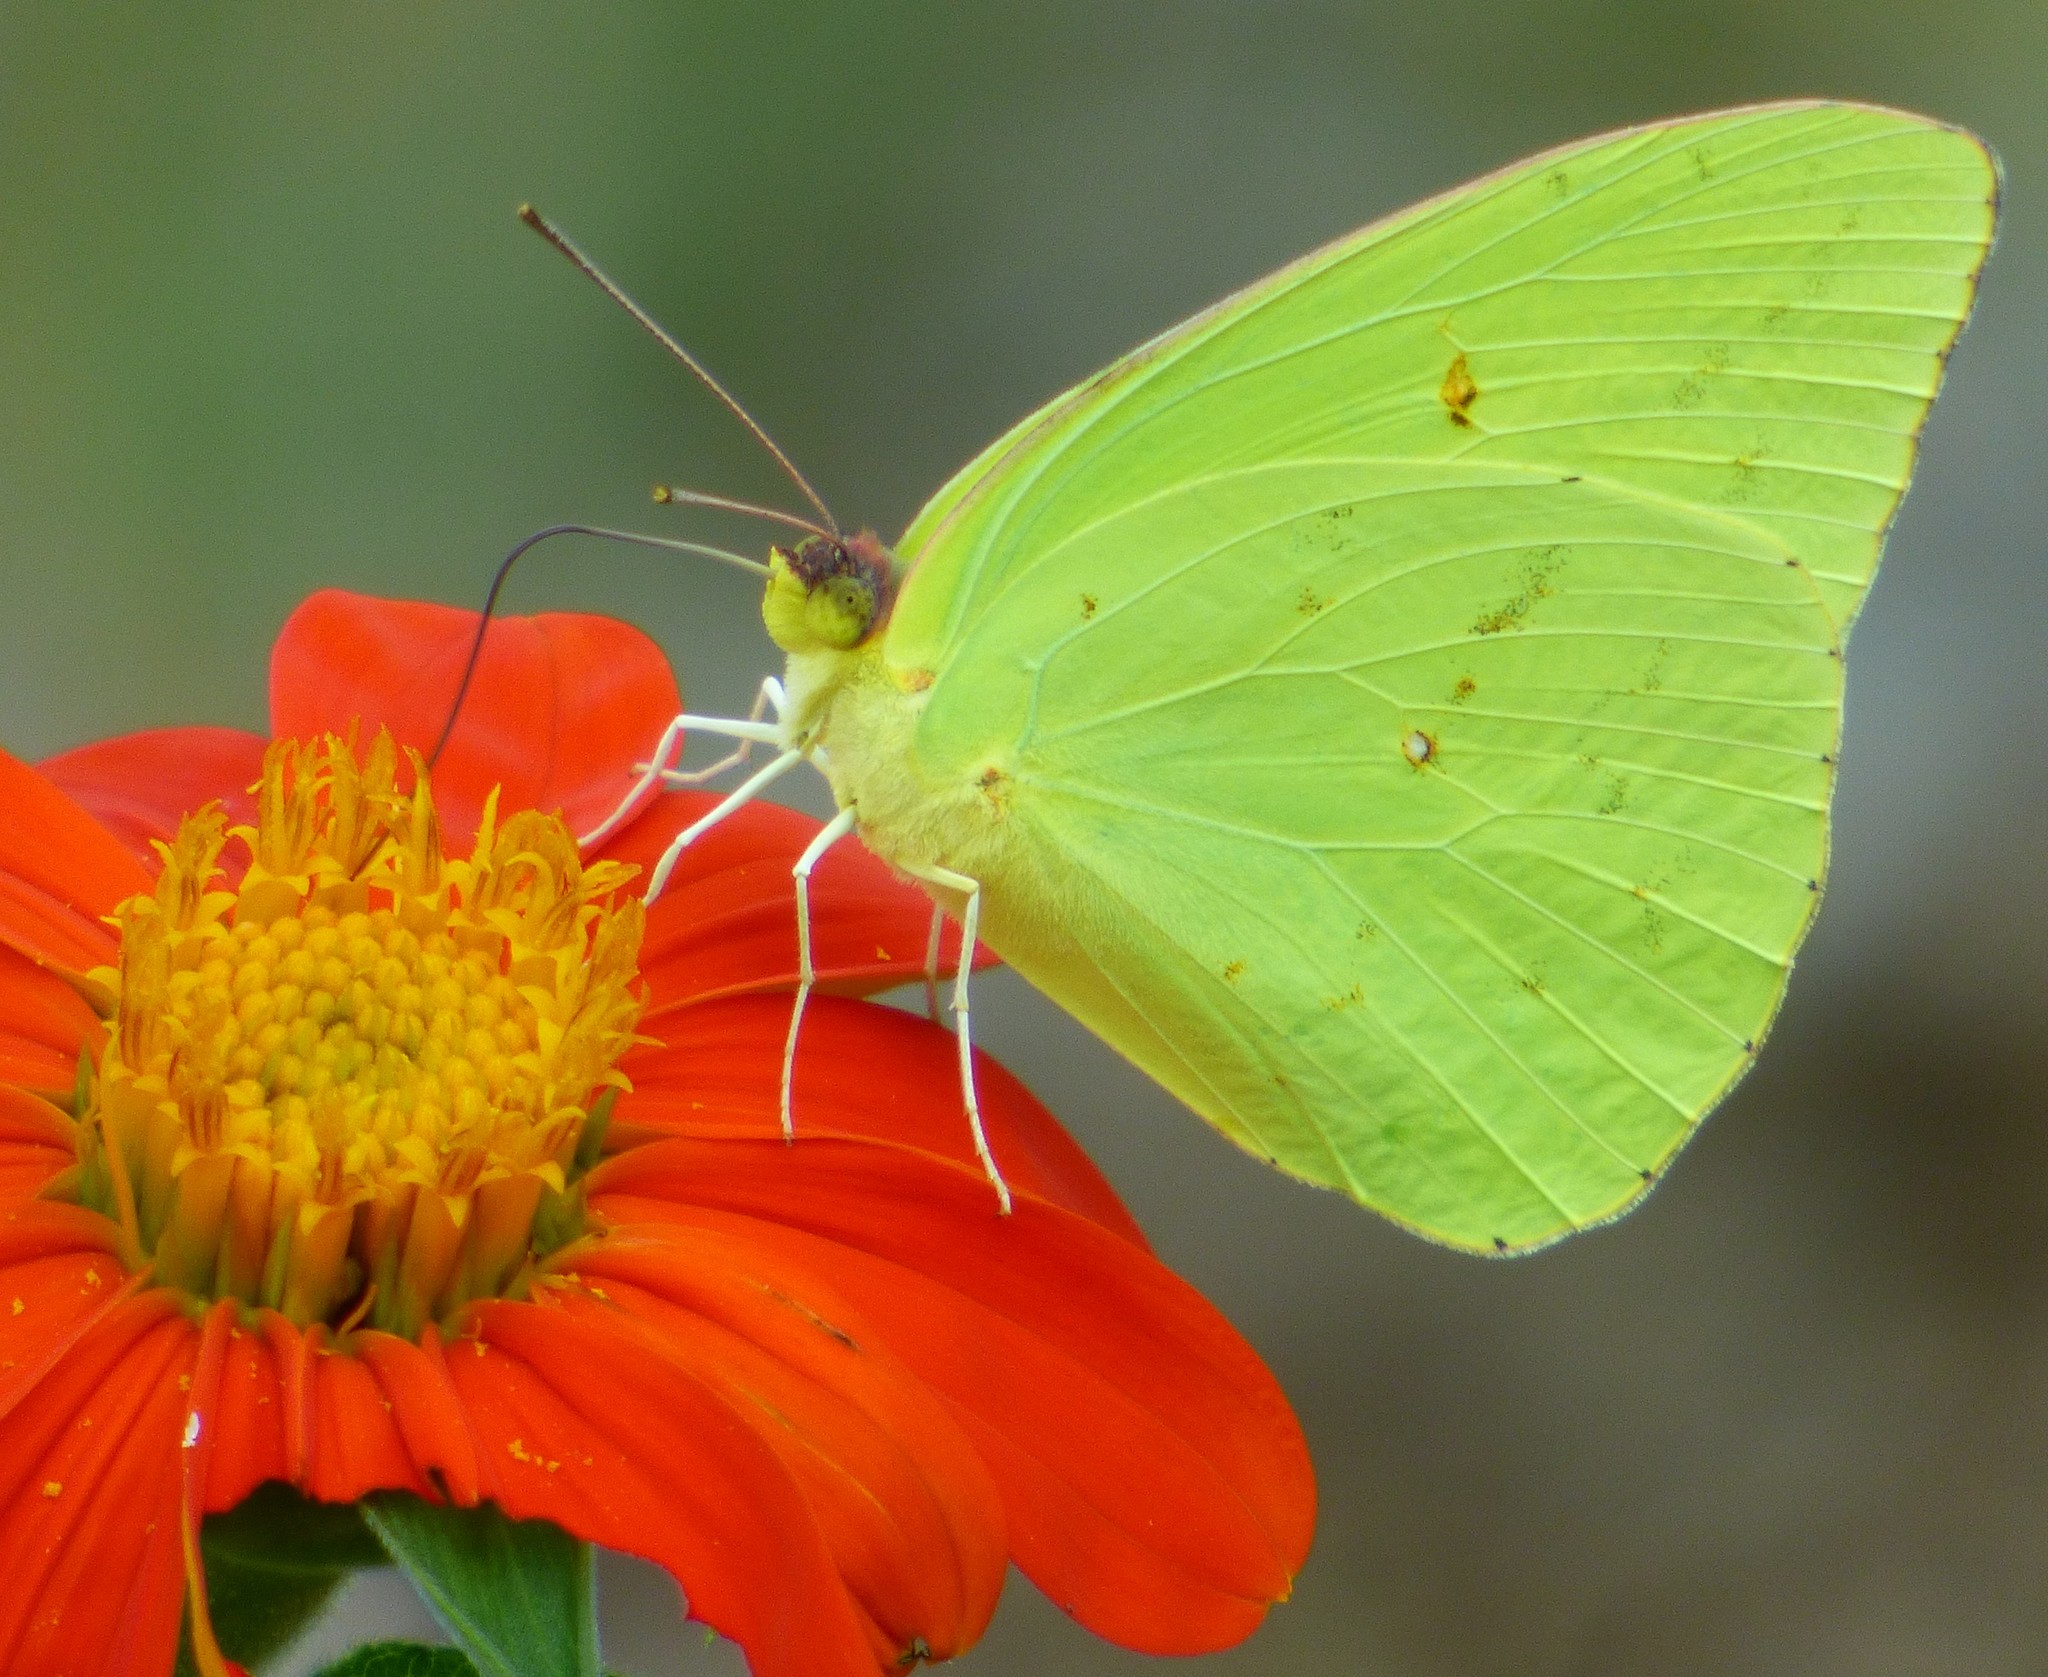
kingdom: Animalia
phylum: Arthropoda
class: Insecta
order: Lepidoptera
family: Pieridae
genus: Phoebis
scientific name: Phoebis sennae
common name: Cloudless sulphur
